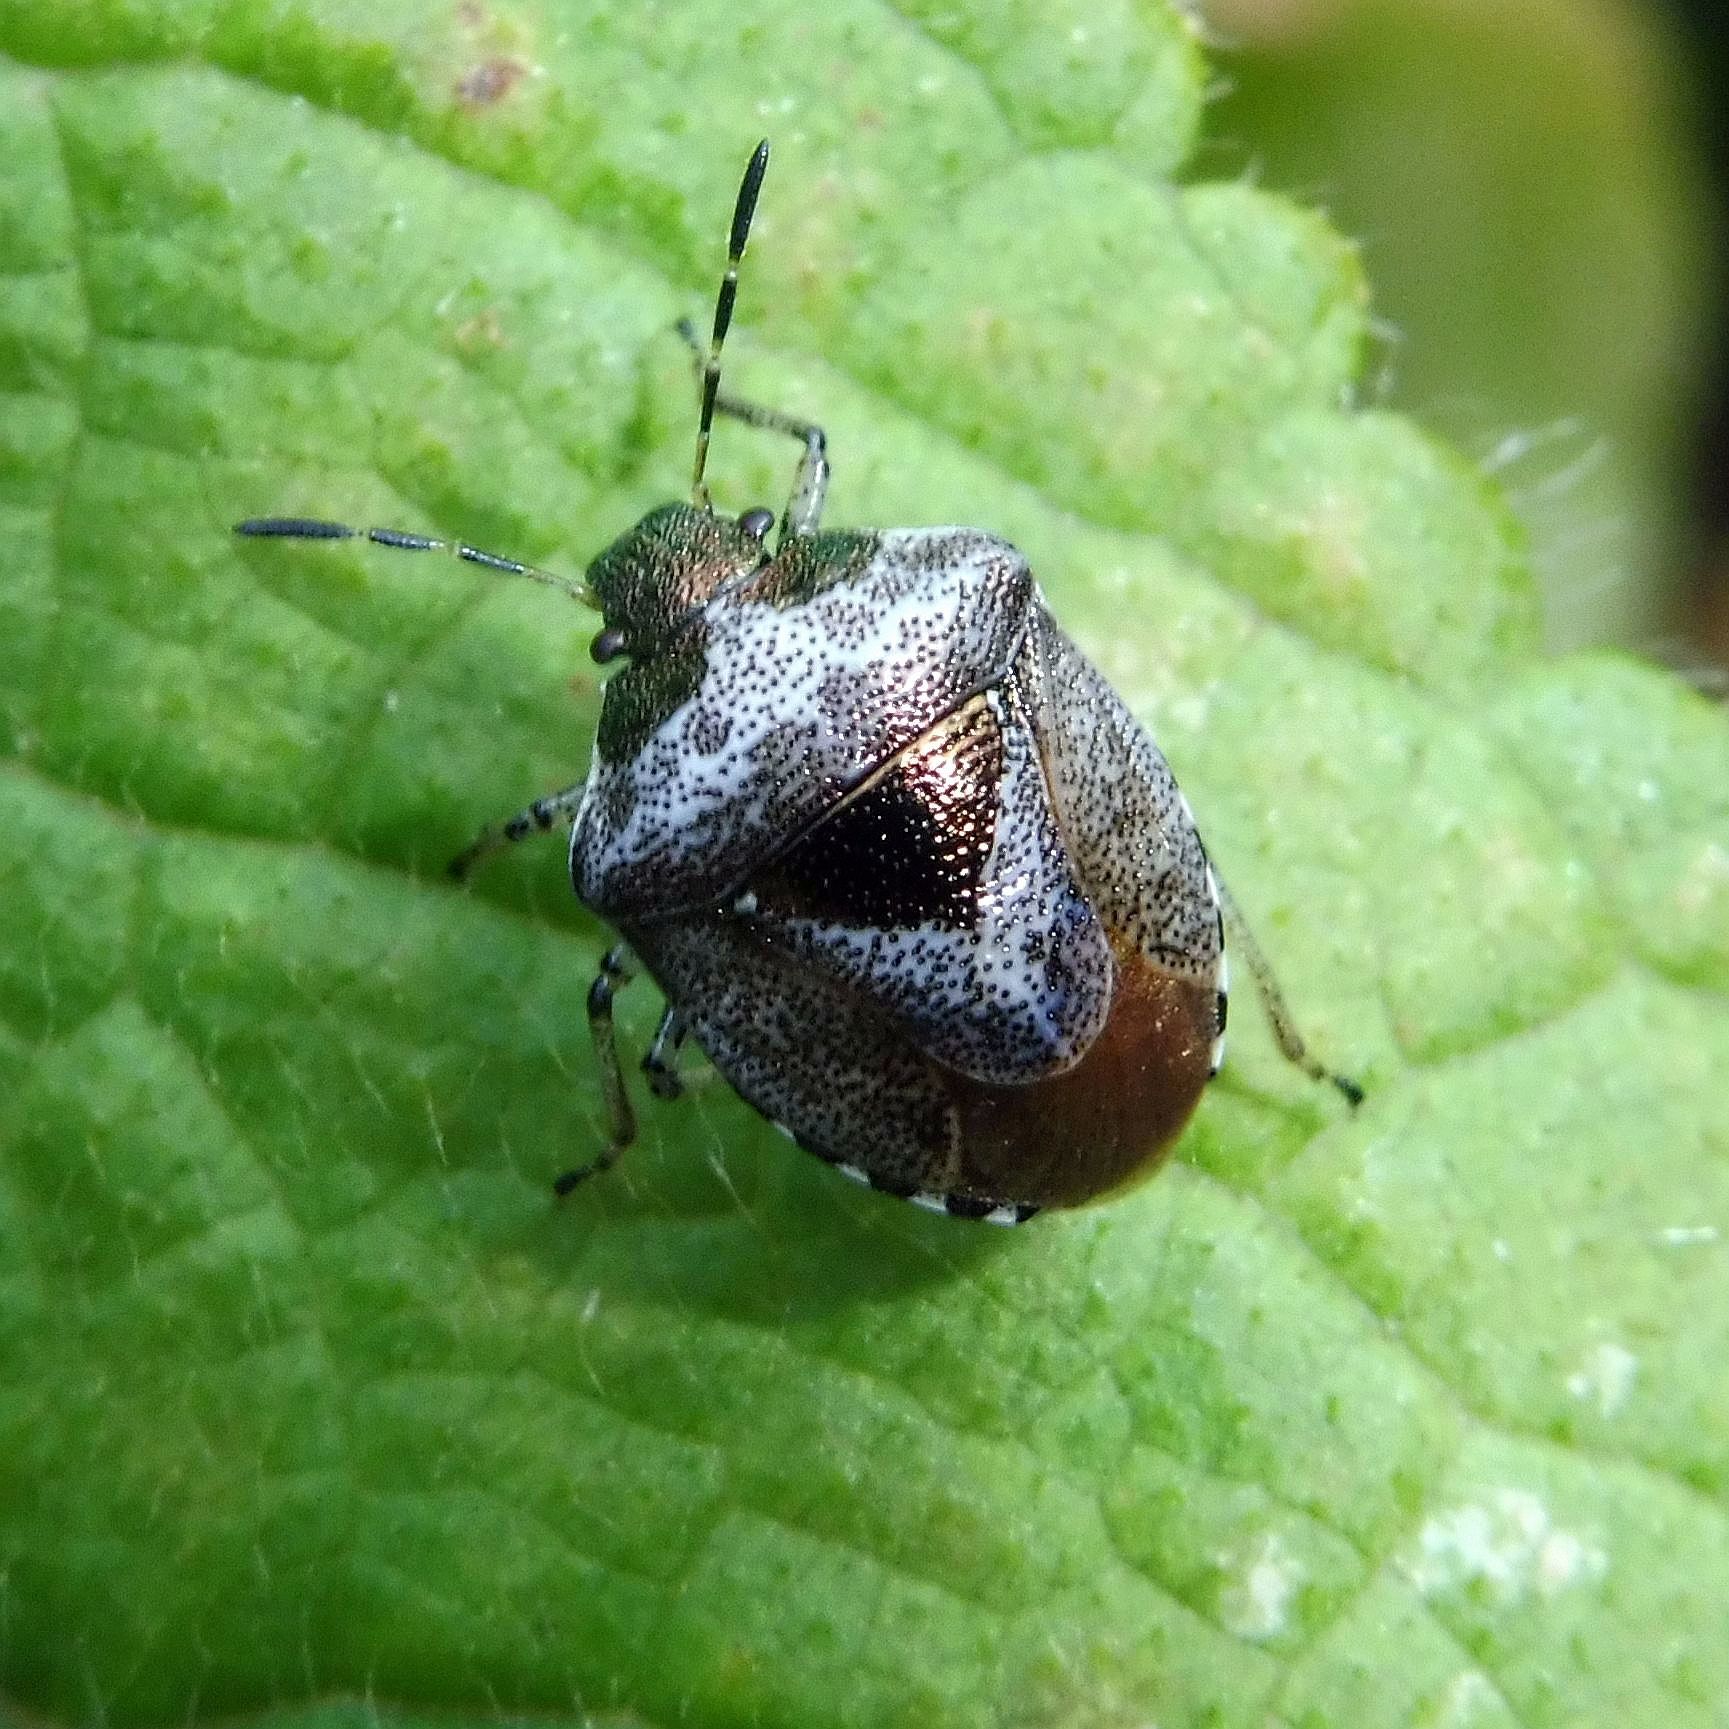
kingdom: Animalia
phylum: Arthropoda
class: Insecta
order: Hemiptera
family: Pentatomidae
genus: Eysarcoris
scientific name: Eysarcoris venustissimus
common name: Woundwort shieldbug
